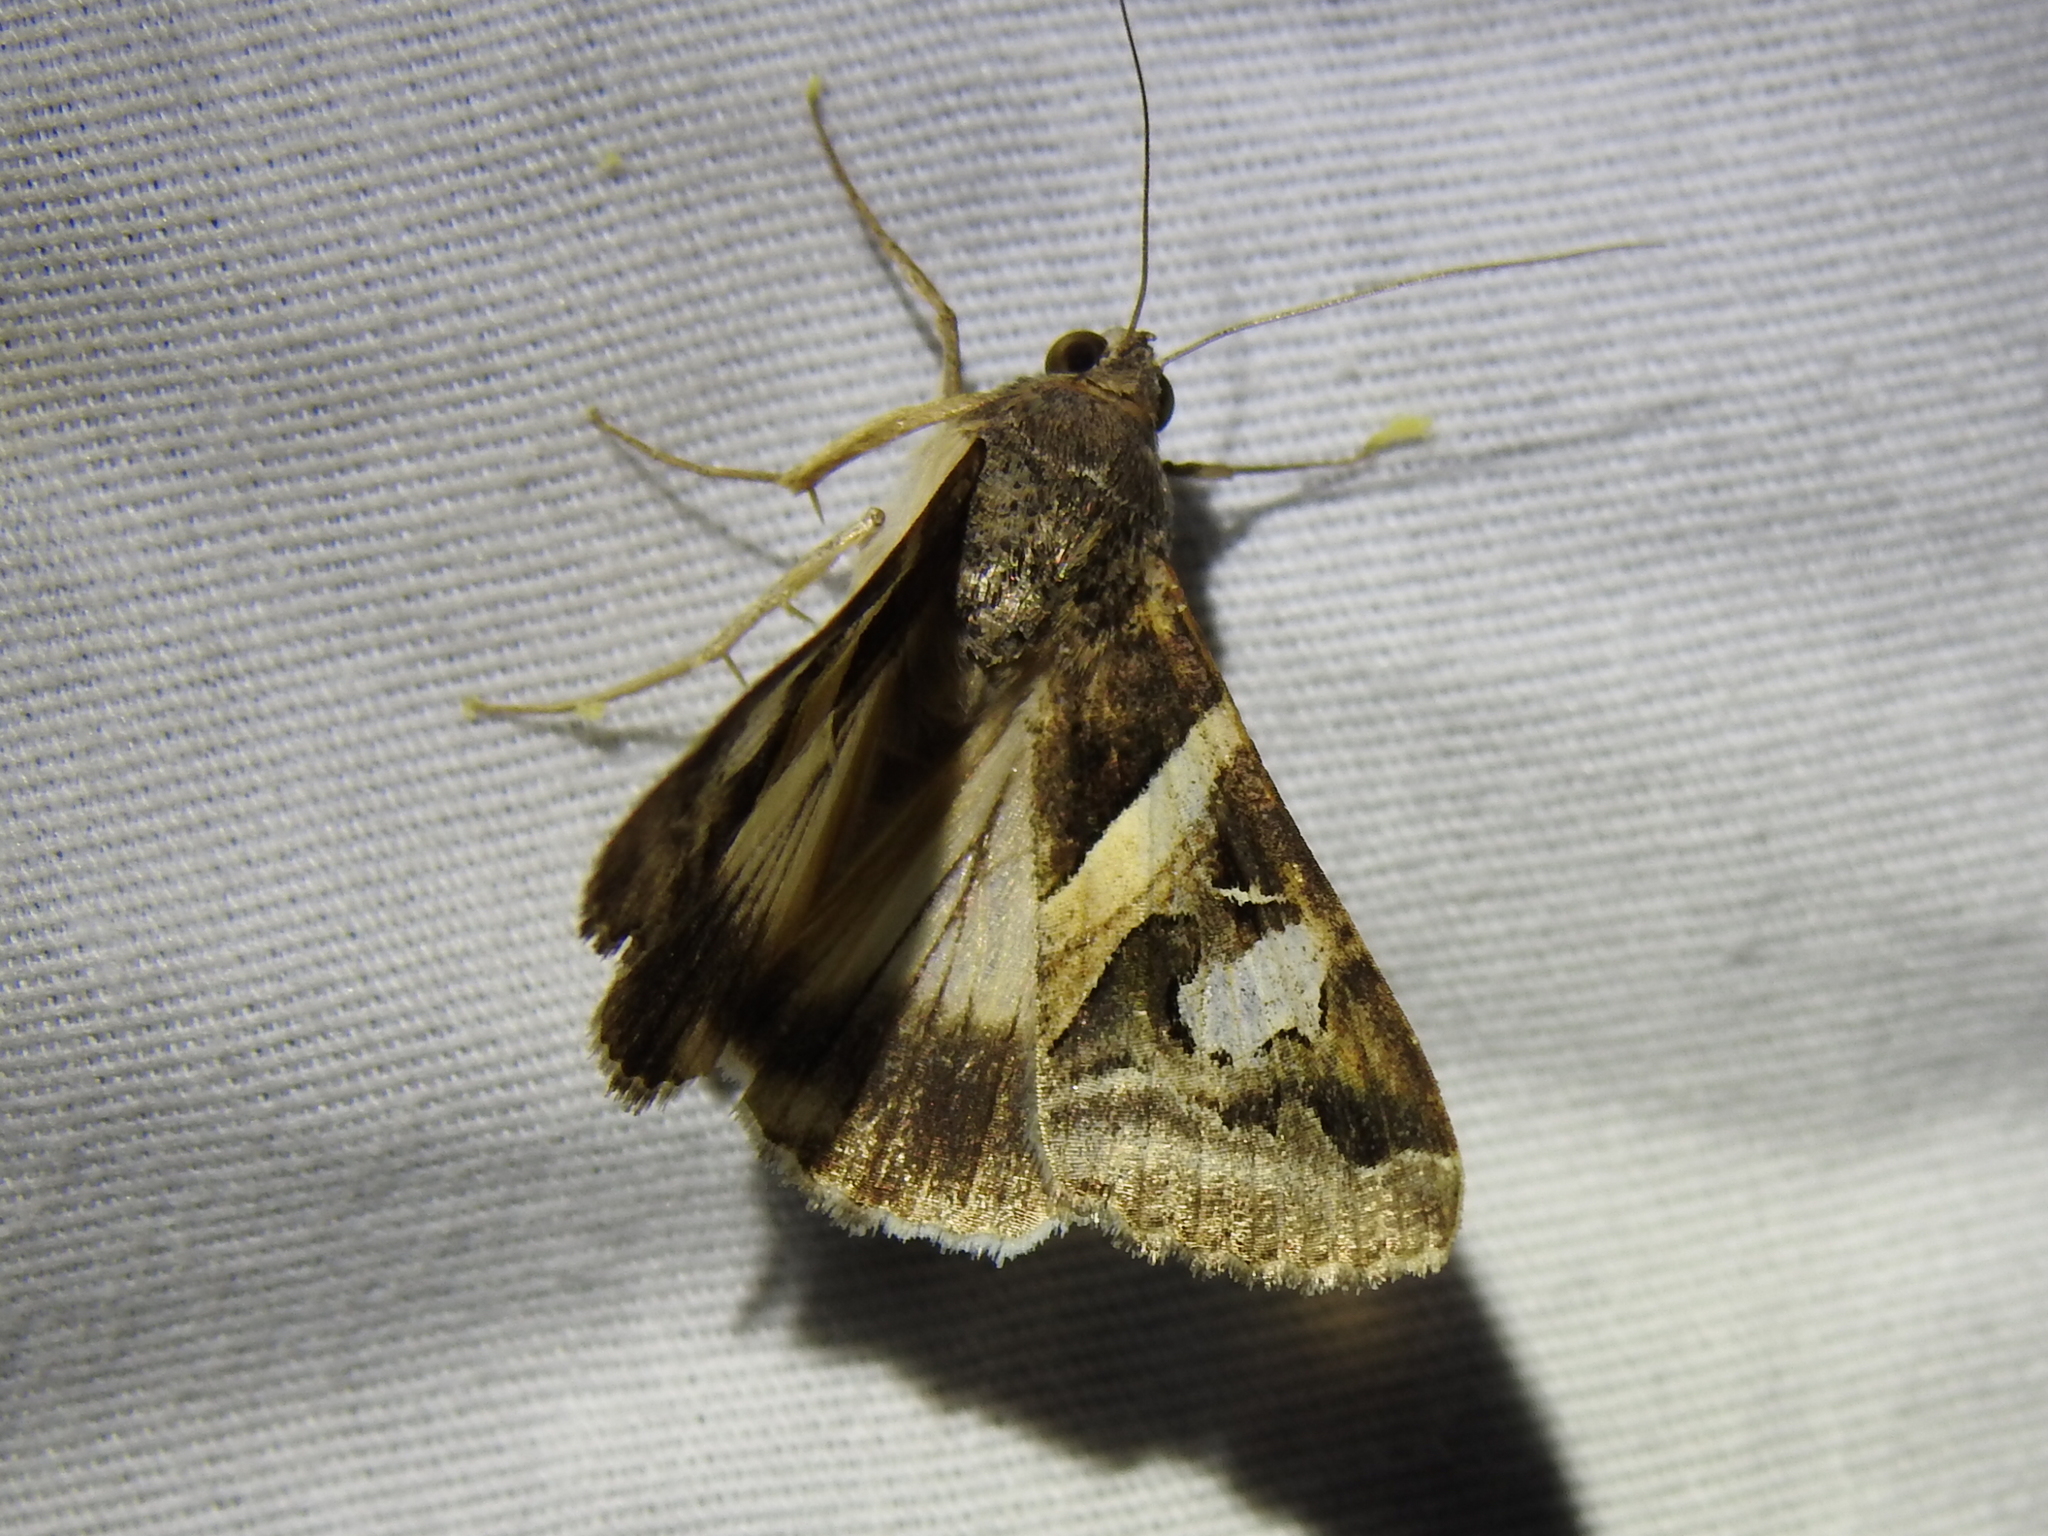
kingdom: Animalia
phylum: Arthropoda
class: Insecta
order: Lepidoptera
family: Erebidae
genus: Melipotis
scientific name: Melipotis indomita
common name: Moth
